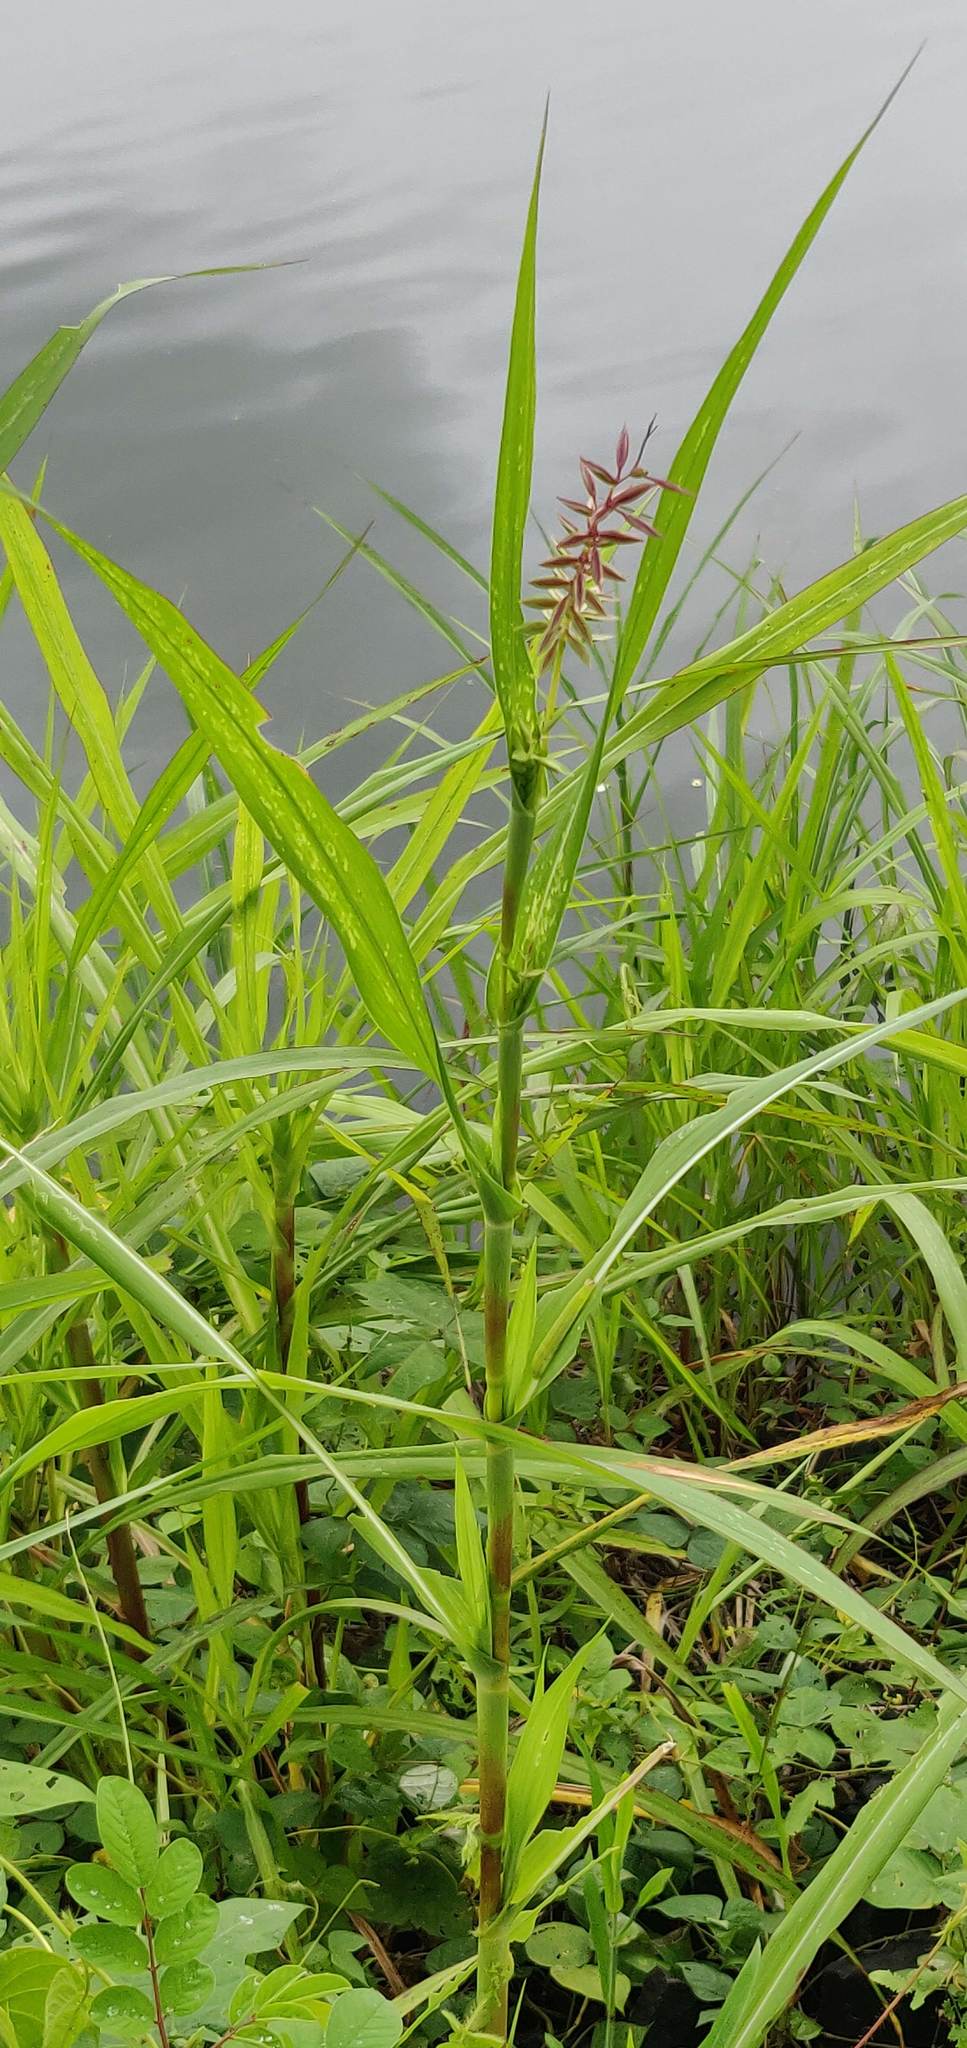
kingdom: Plantae
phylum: Tracheophyta
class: Liliopsida
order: Poales
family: Poaceae
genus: Coix
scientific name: Coix lacryma-jobi
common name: Job's tears
